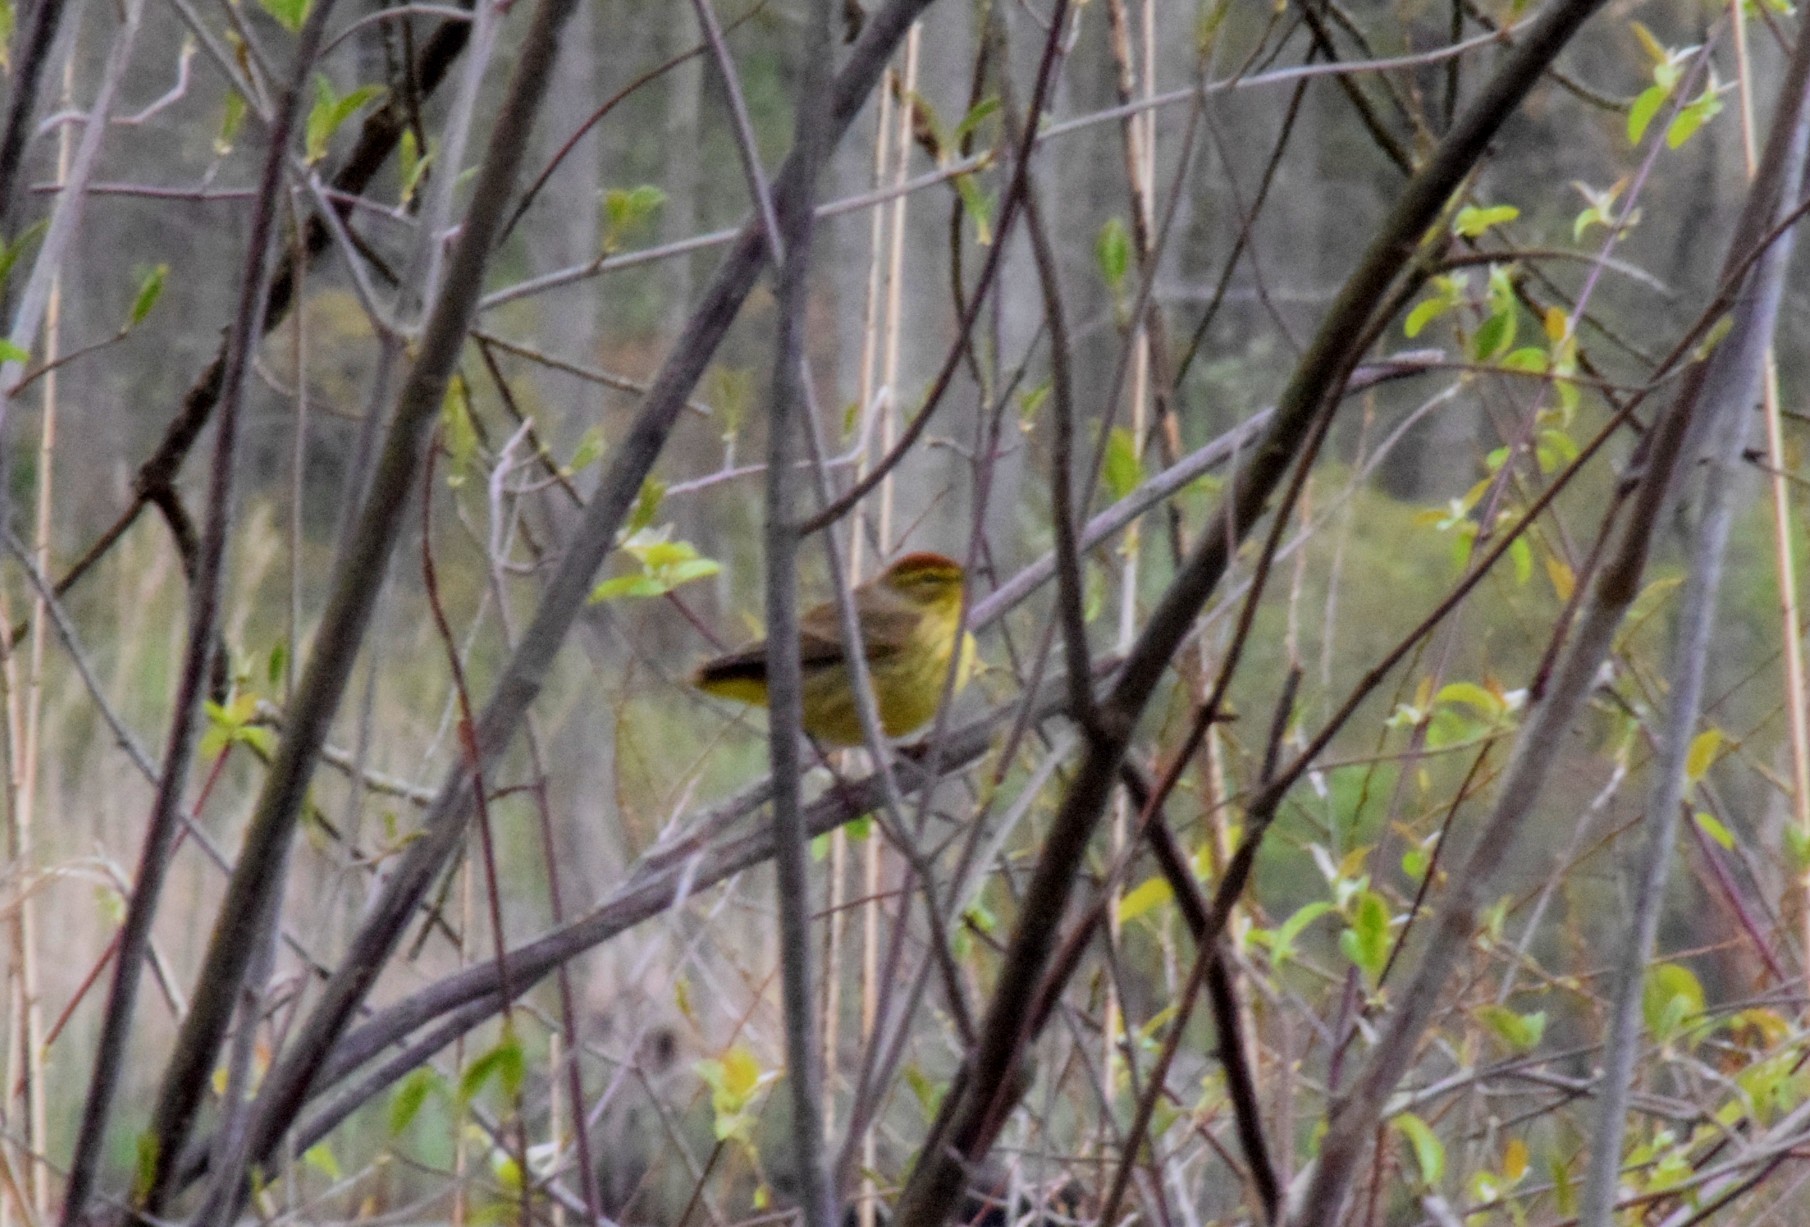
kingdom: Animalia
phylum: Chordata
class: Aves
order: Passeriformes
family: Parulidae
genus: Setophaga
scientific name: Setophaga palmarum
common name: Palm warbler
